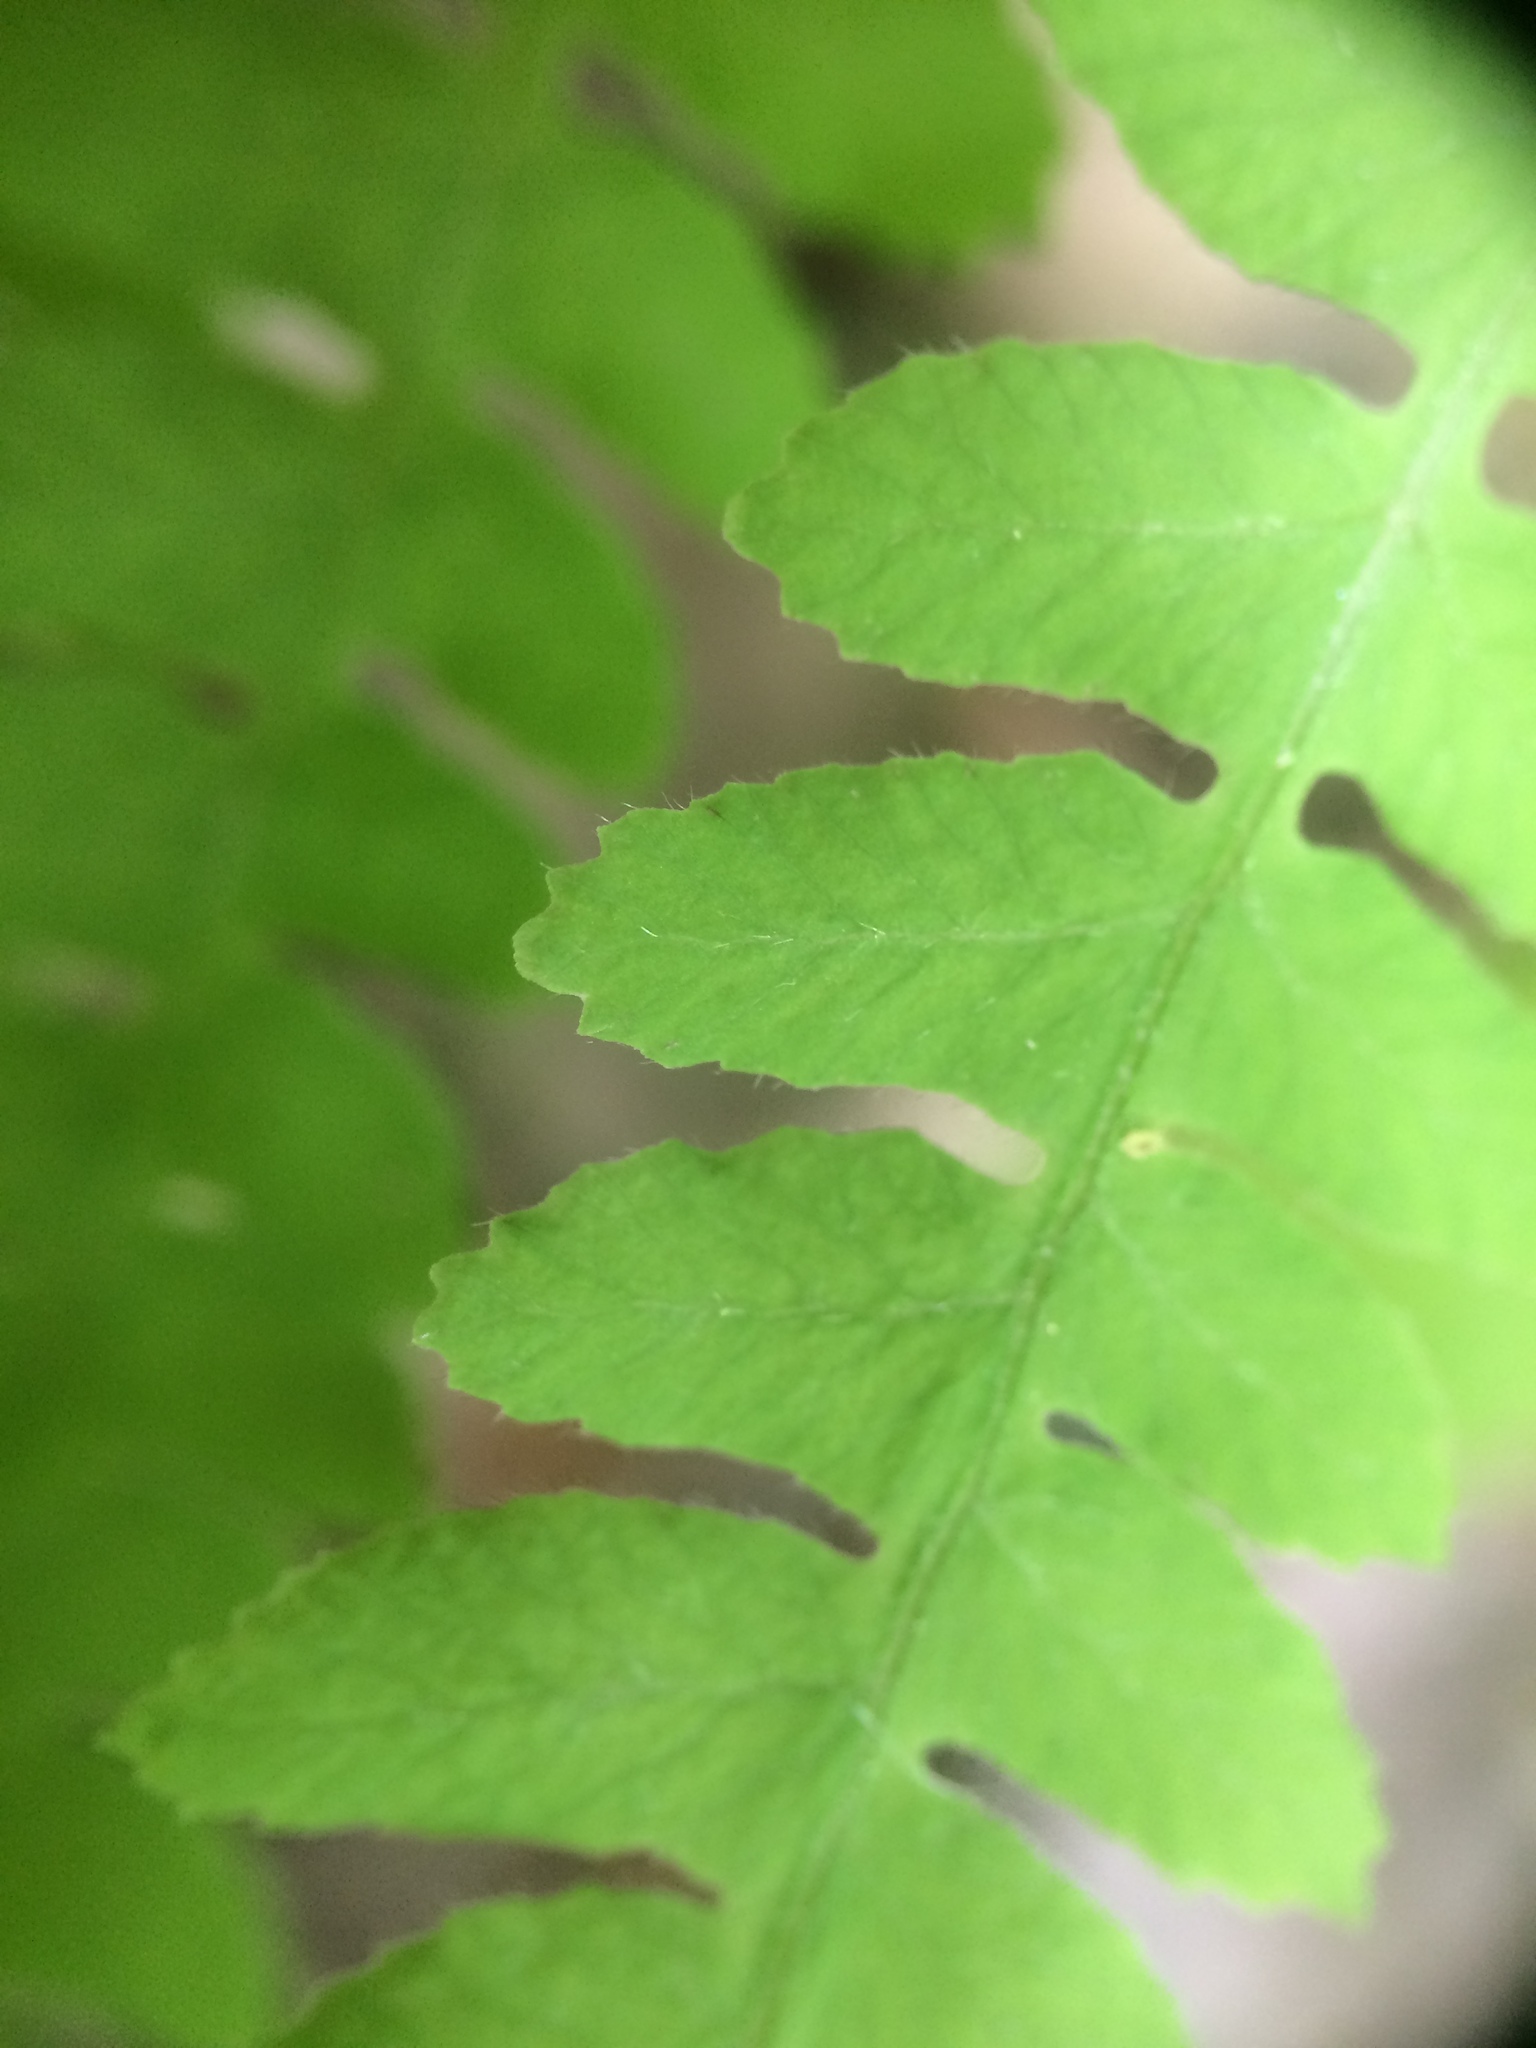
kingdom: Plantae
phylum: Tracheophyta
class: Polypodiopsida
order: Polypodiales
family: Thelypteridaceae
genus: Thelypteris
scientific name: Thelypteris palustris
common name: Marsh fern
